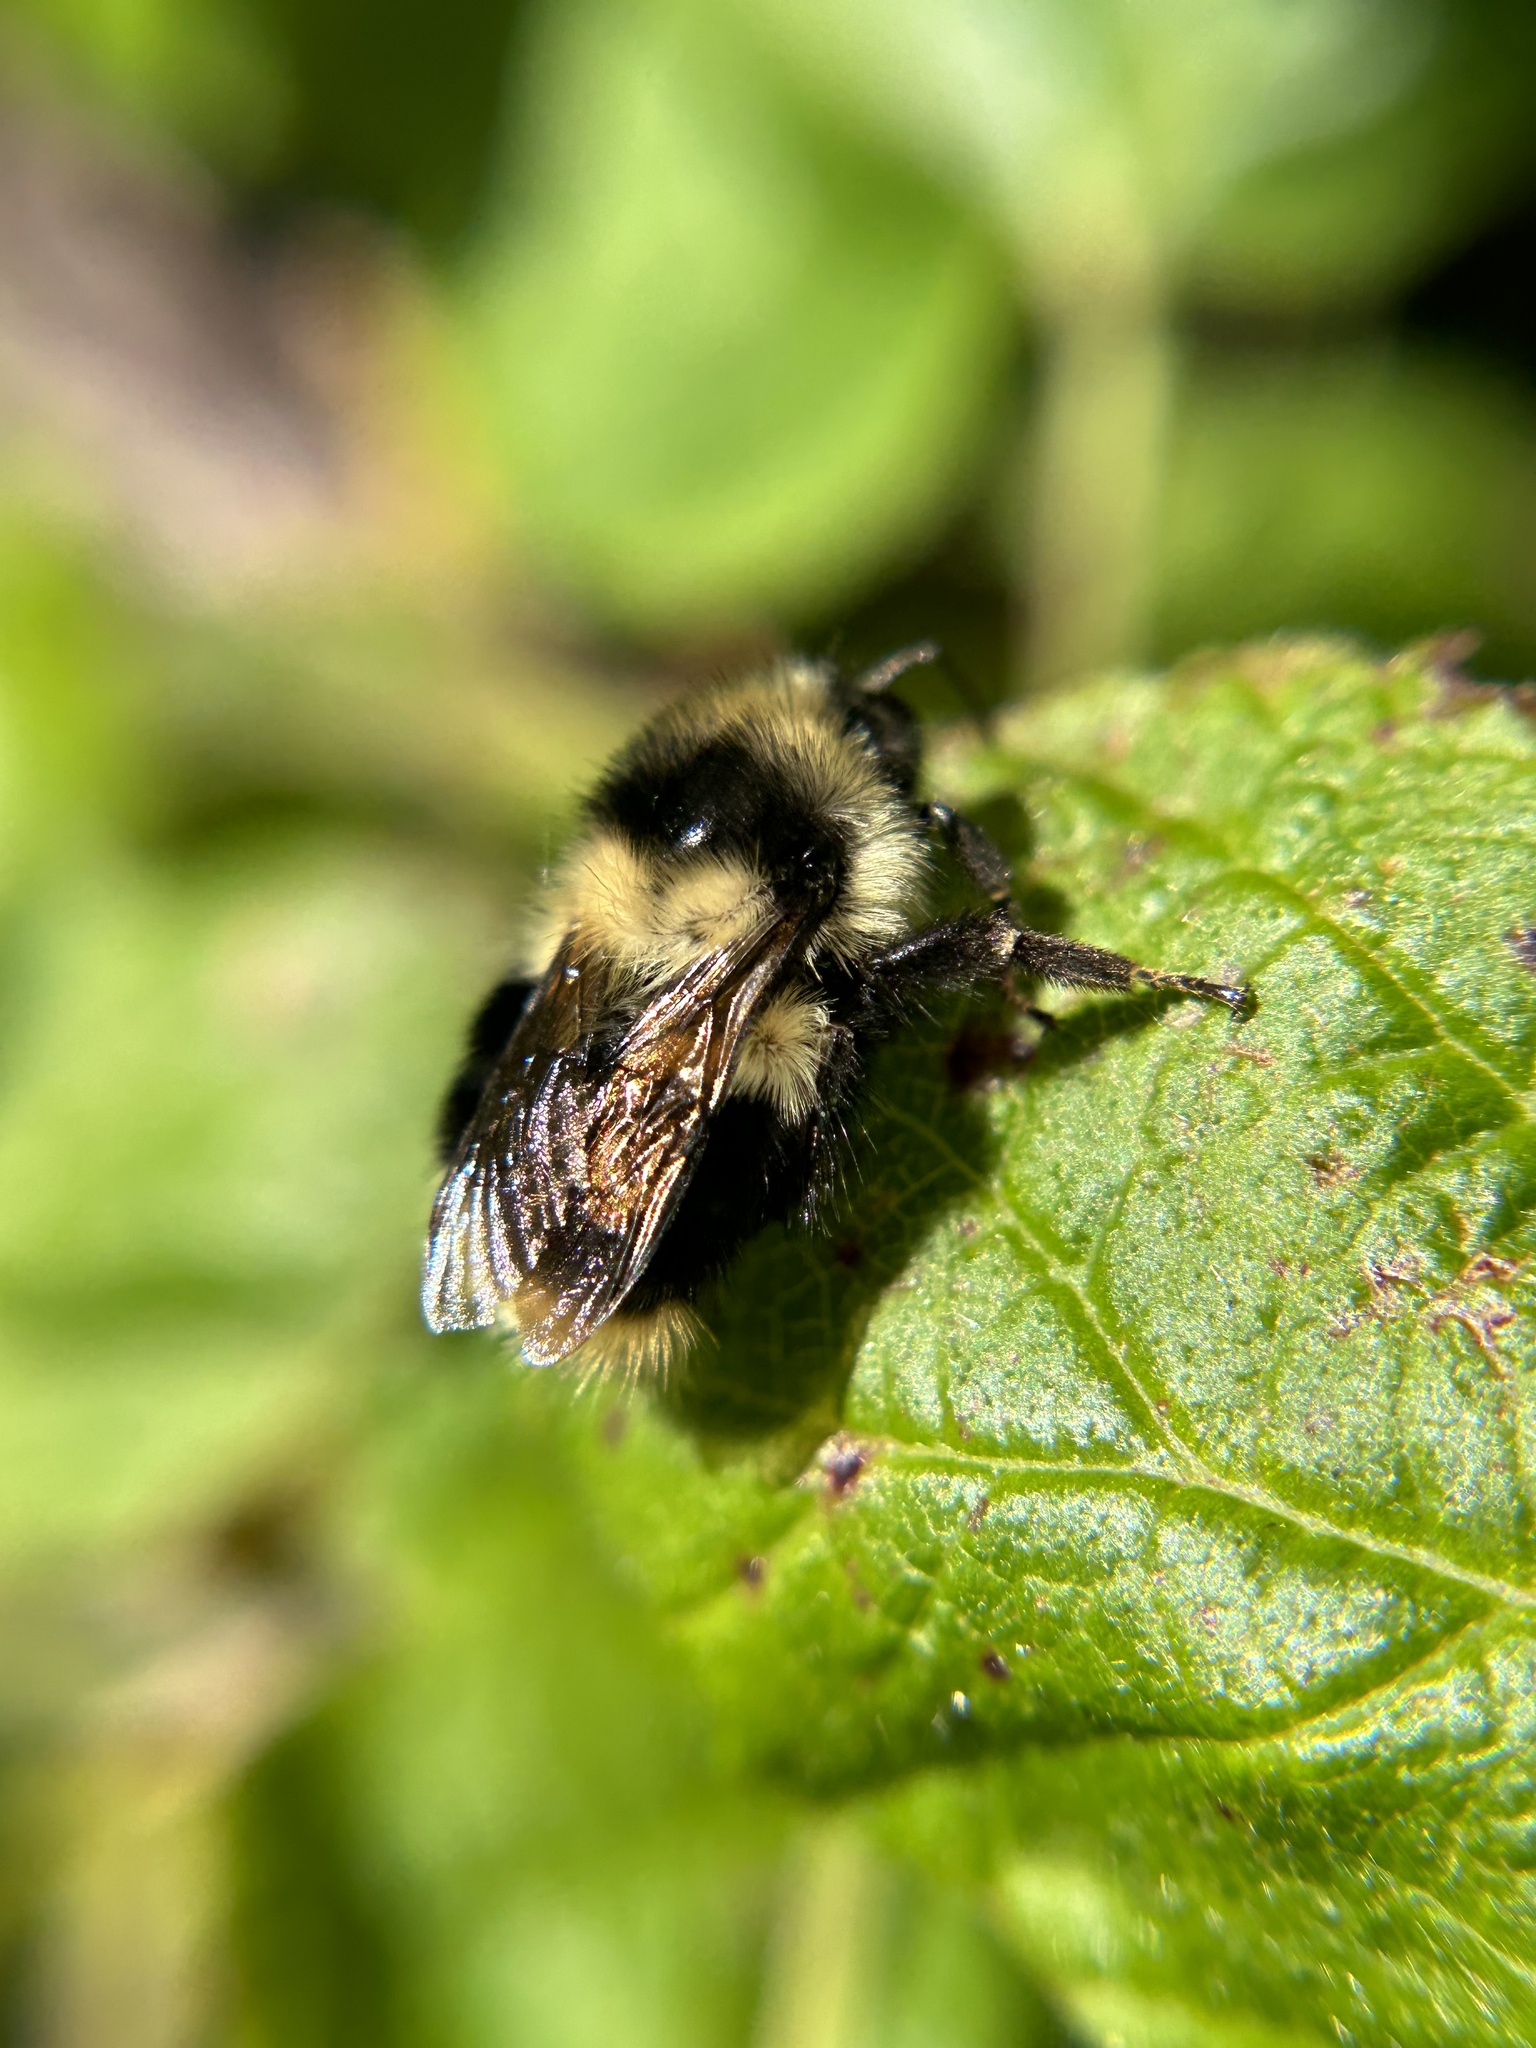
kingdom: Animalia
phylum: Arthropoda
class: Insecta
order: Hymenoptera
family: Apidae
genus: Bombus
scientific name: Bombus melanopygus
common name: Black tail bumble bee
